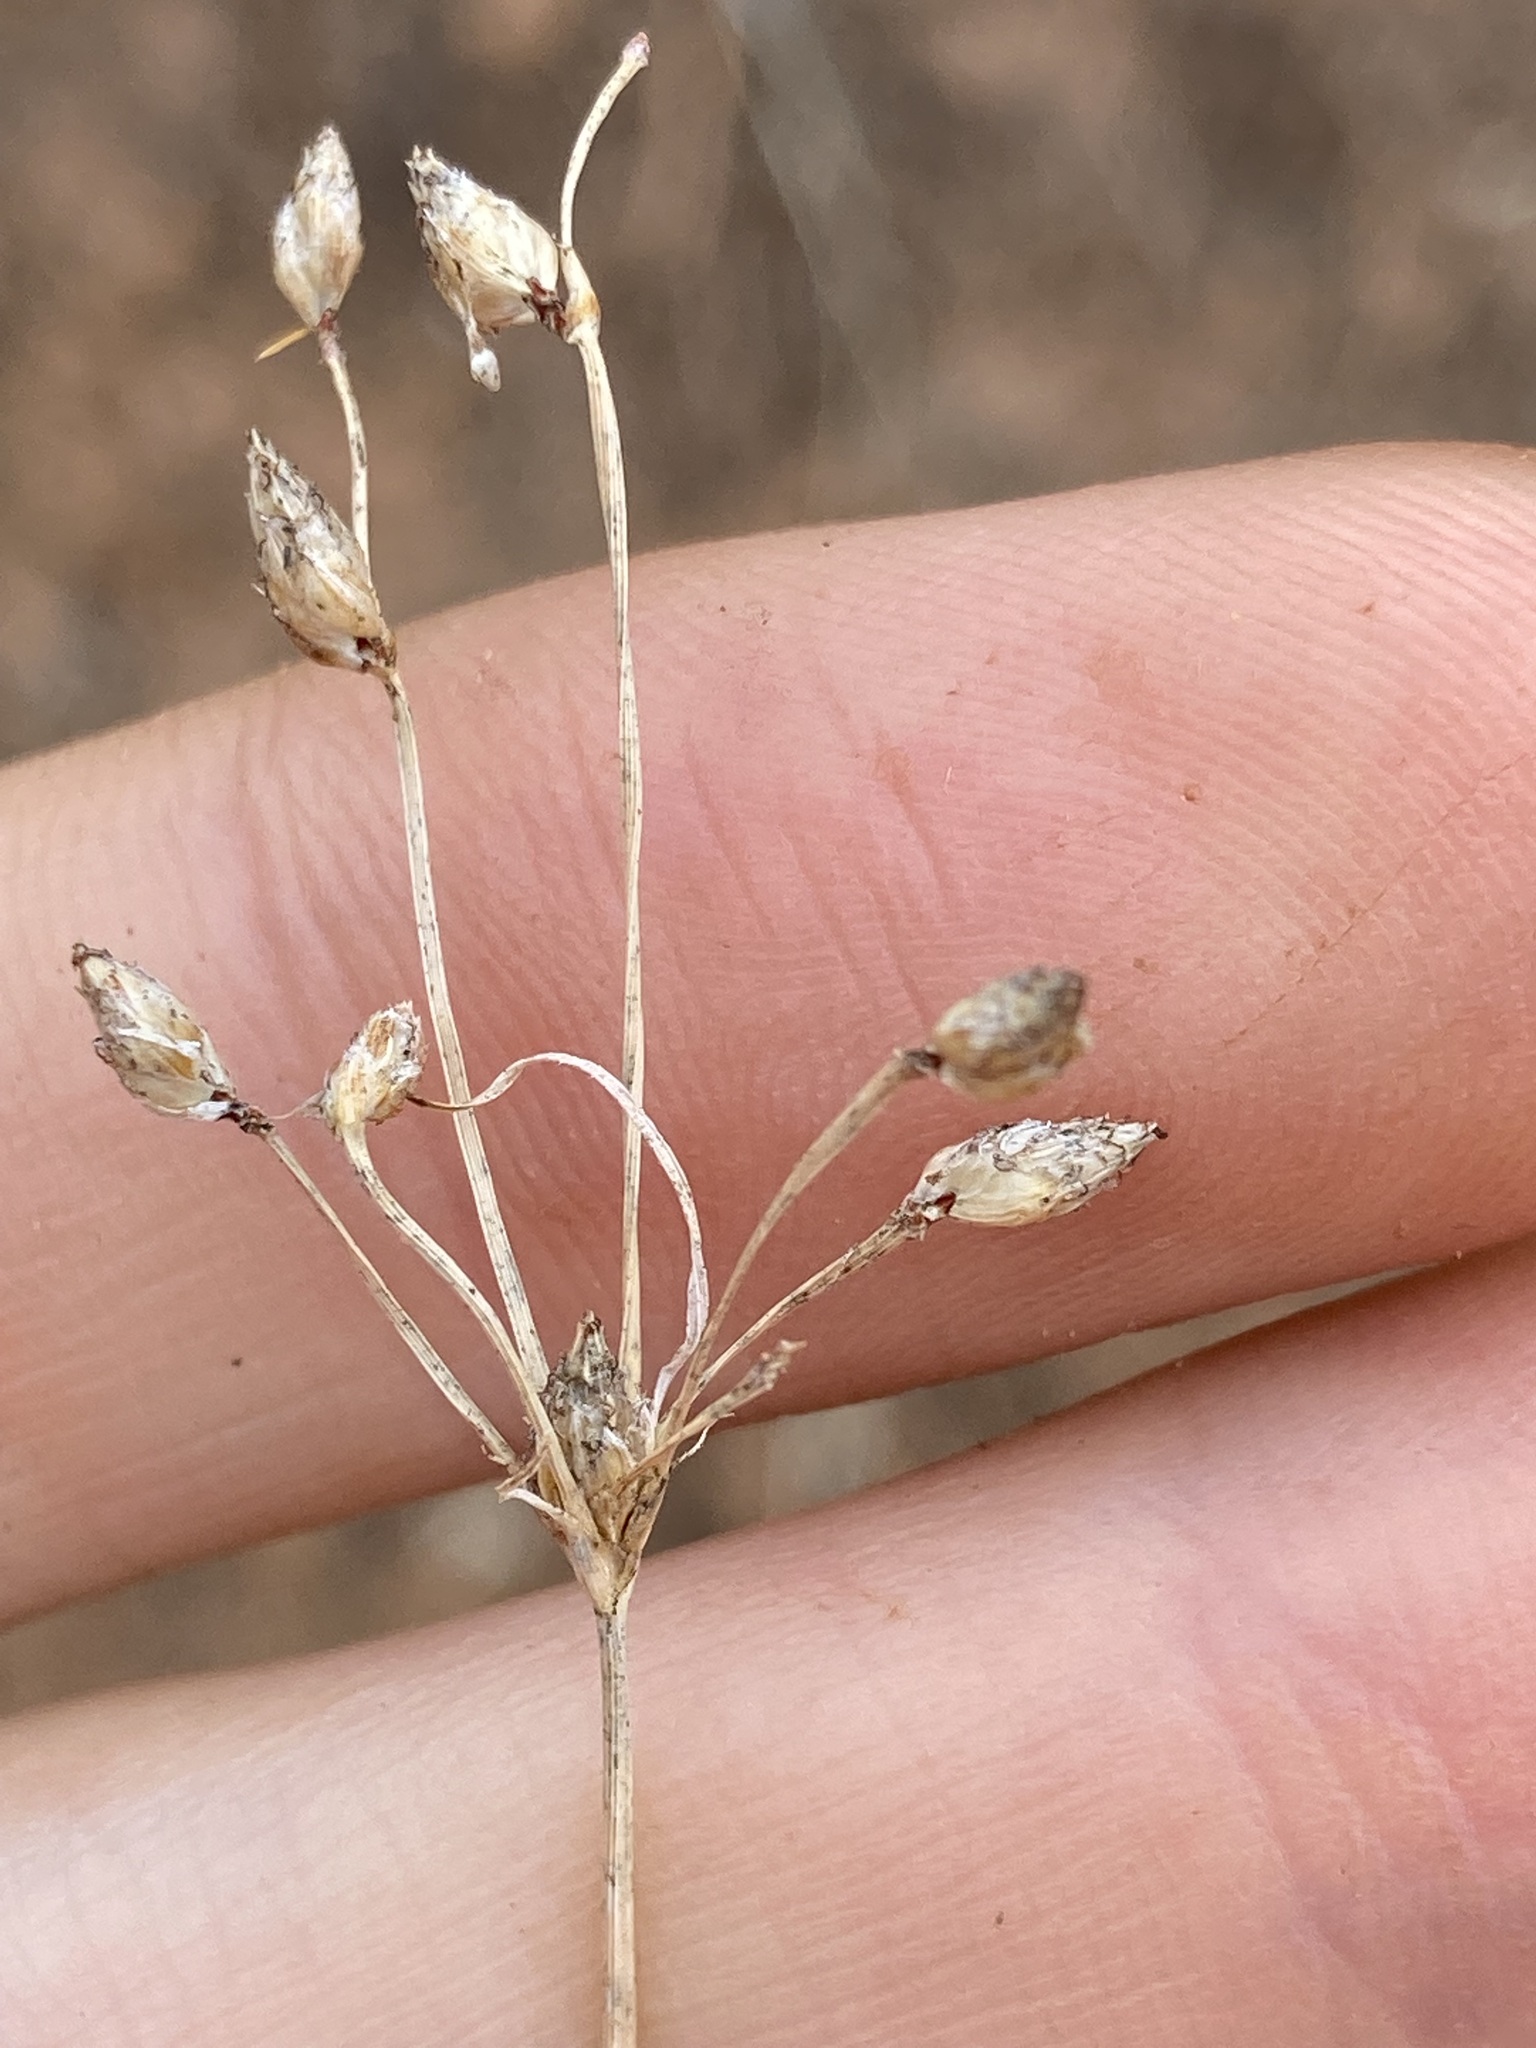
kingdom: Plantae
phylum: Tracheophyta
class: Liliopsida
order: Poales
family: Cyperaceae
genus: Fimbristylis
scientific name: Fimbristylis dichotoma
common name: Forked fimbry
